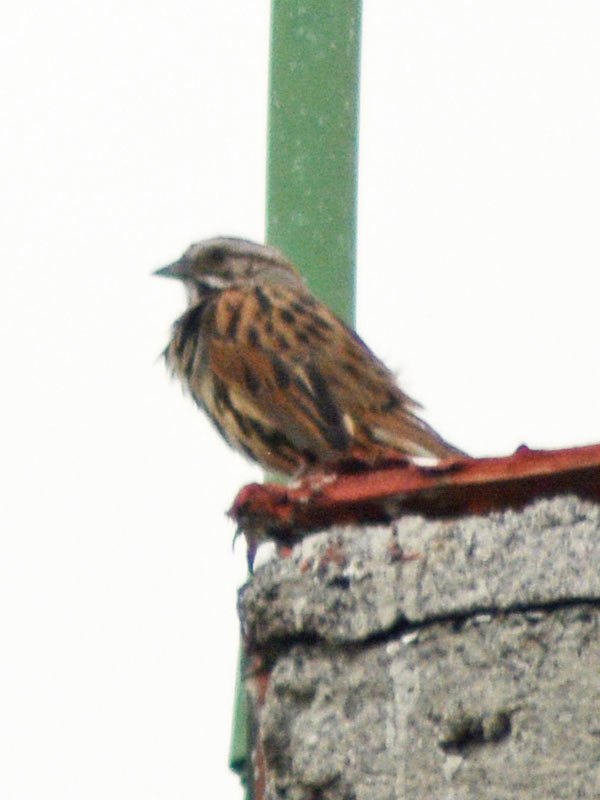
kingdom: Animalia
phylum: Chordata
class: Aves
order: Passeriformes
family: Passerellidae
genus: Melospiza
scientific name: Melospiza melodia
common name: Song sparrow
